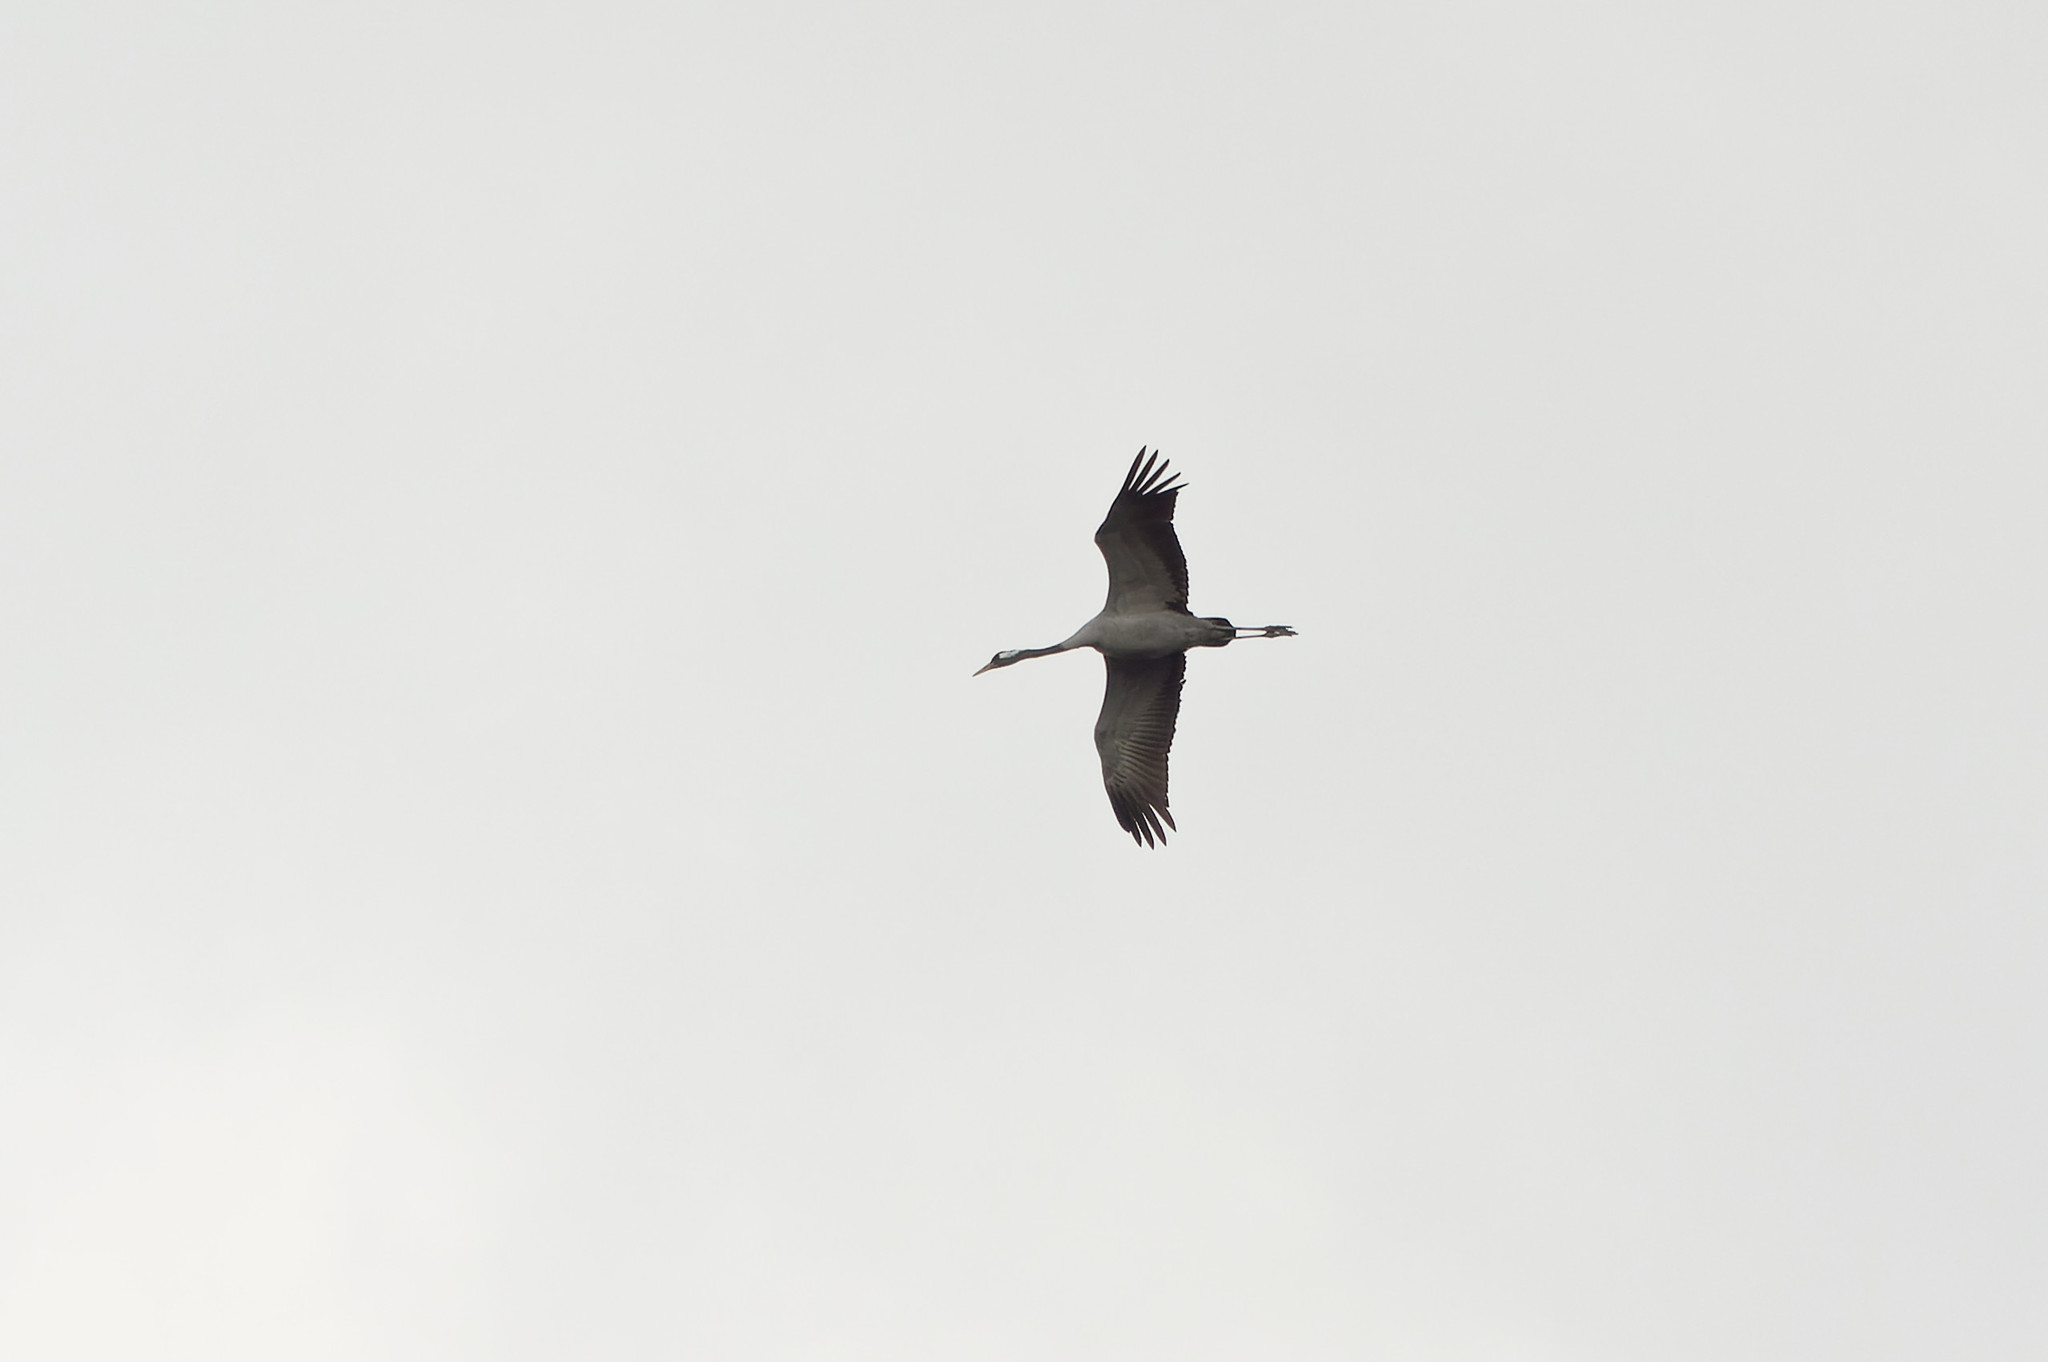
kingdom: Animalia
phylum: Chordata
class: Aves
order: Gruiformes
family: Gruidae
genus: Grus
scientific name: Grus grus
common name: Common crane
